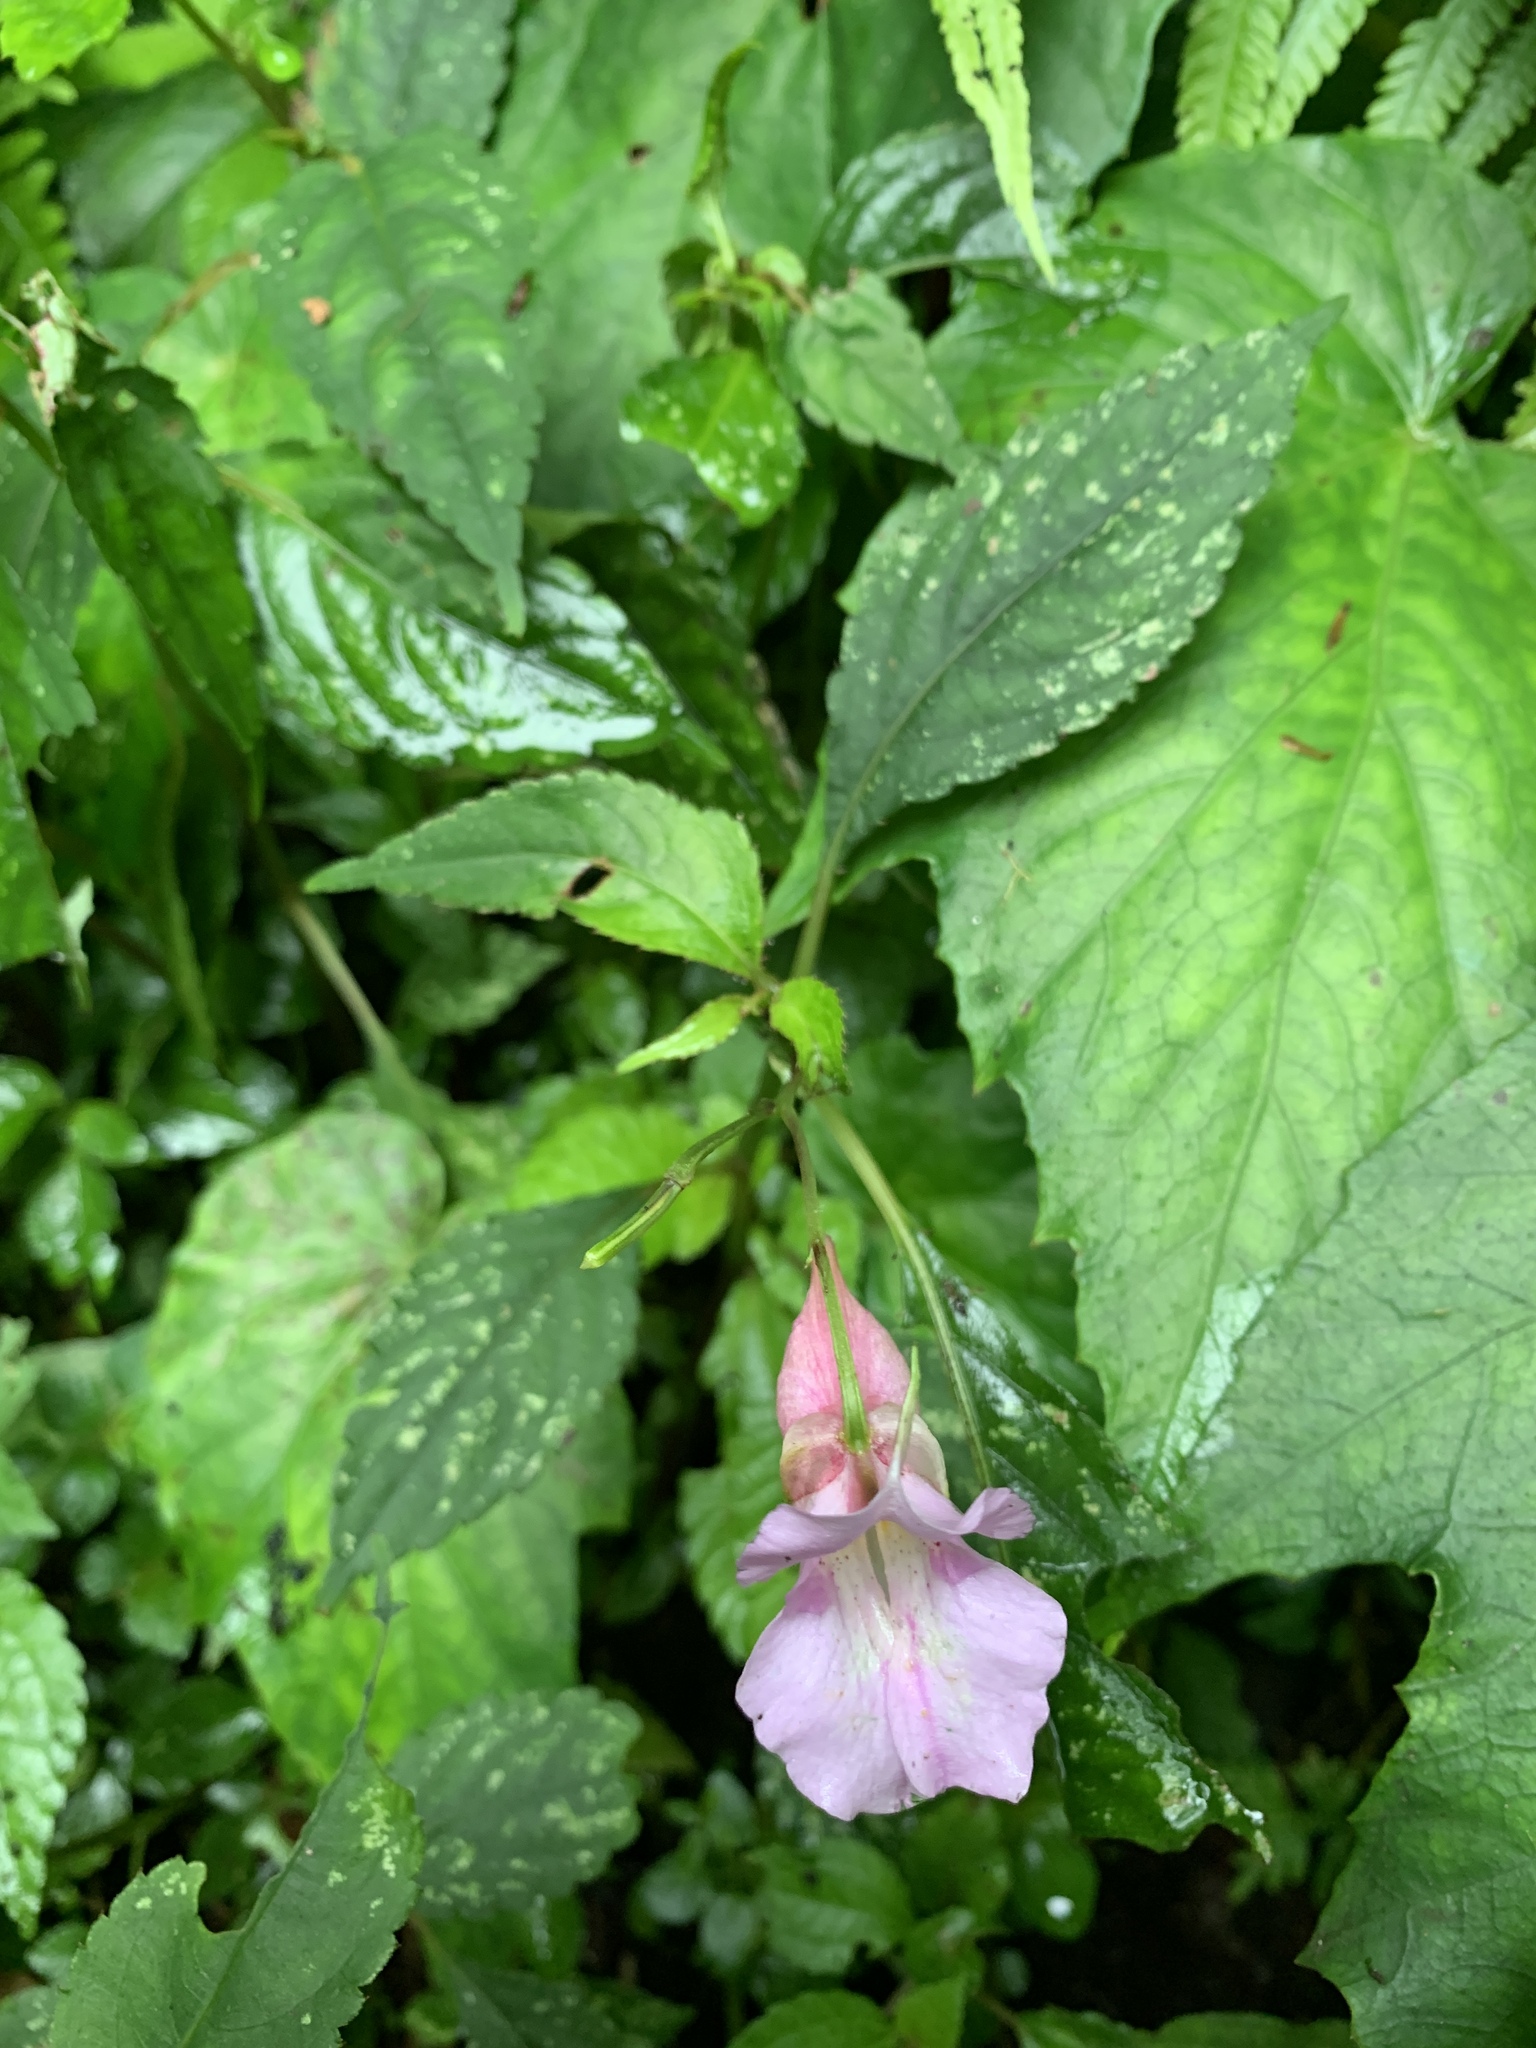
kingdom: Plantae
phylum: Tracheophyta
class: Magnoliopsida
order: Ericales
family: Balsaminaceae
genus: Impatiens
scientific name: Impatiens uniflora
